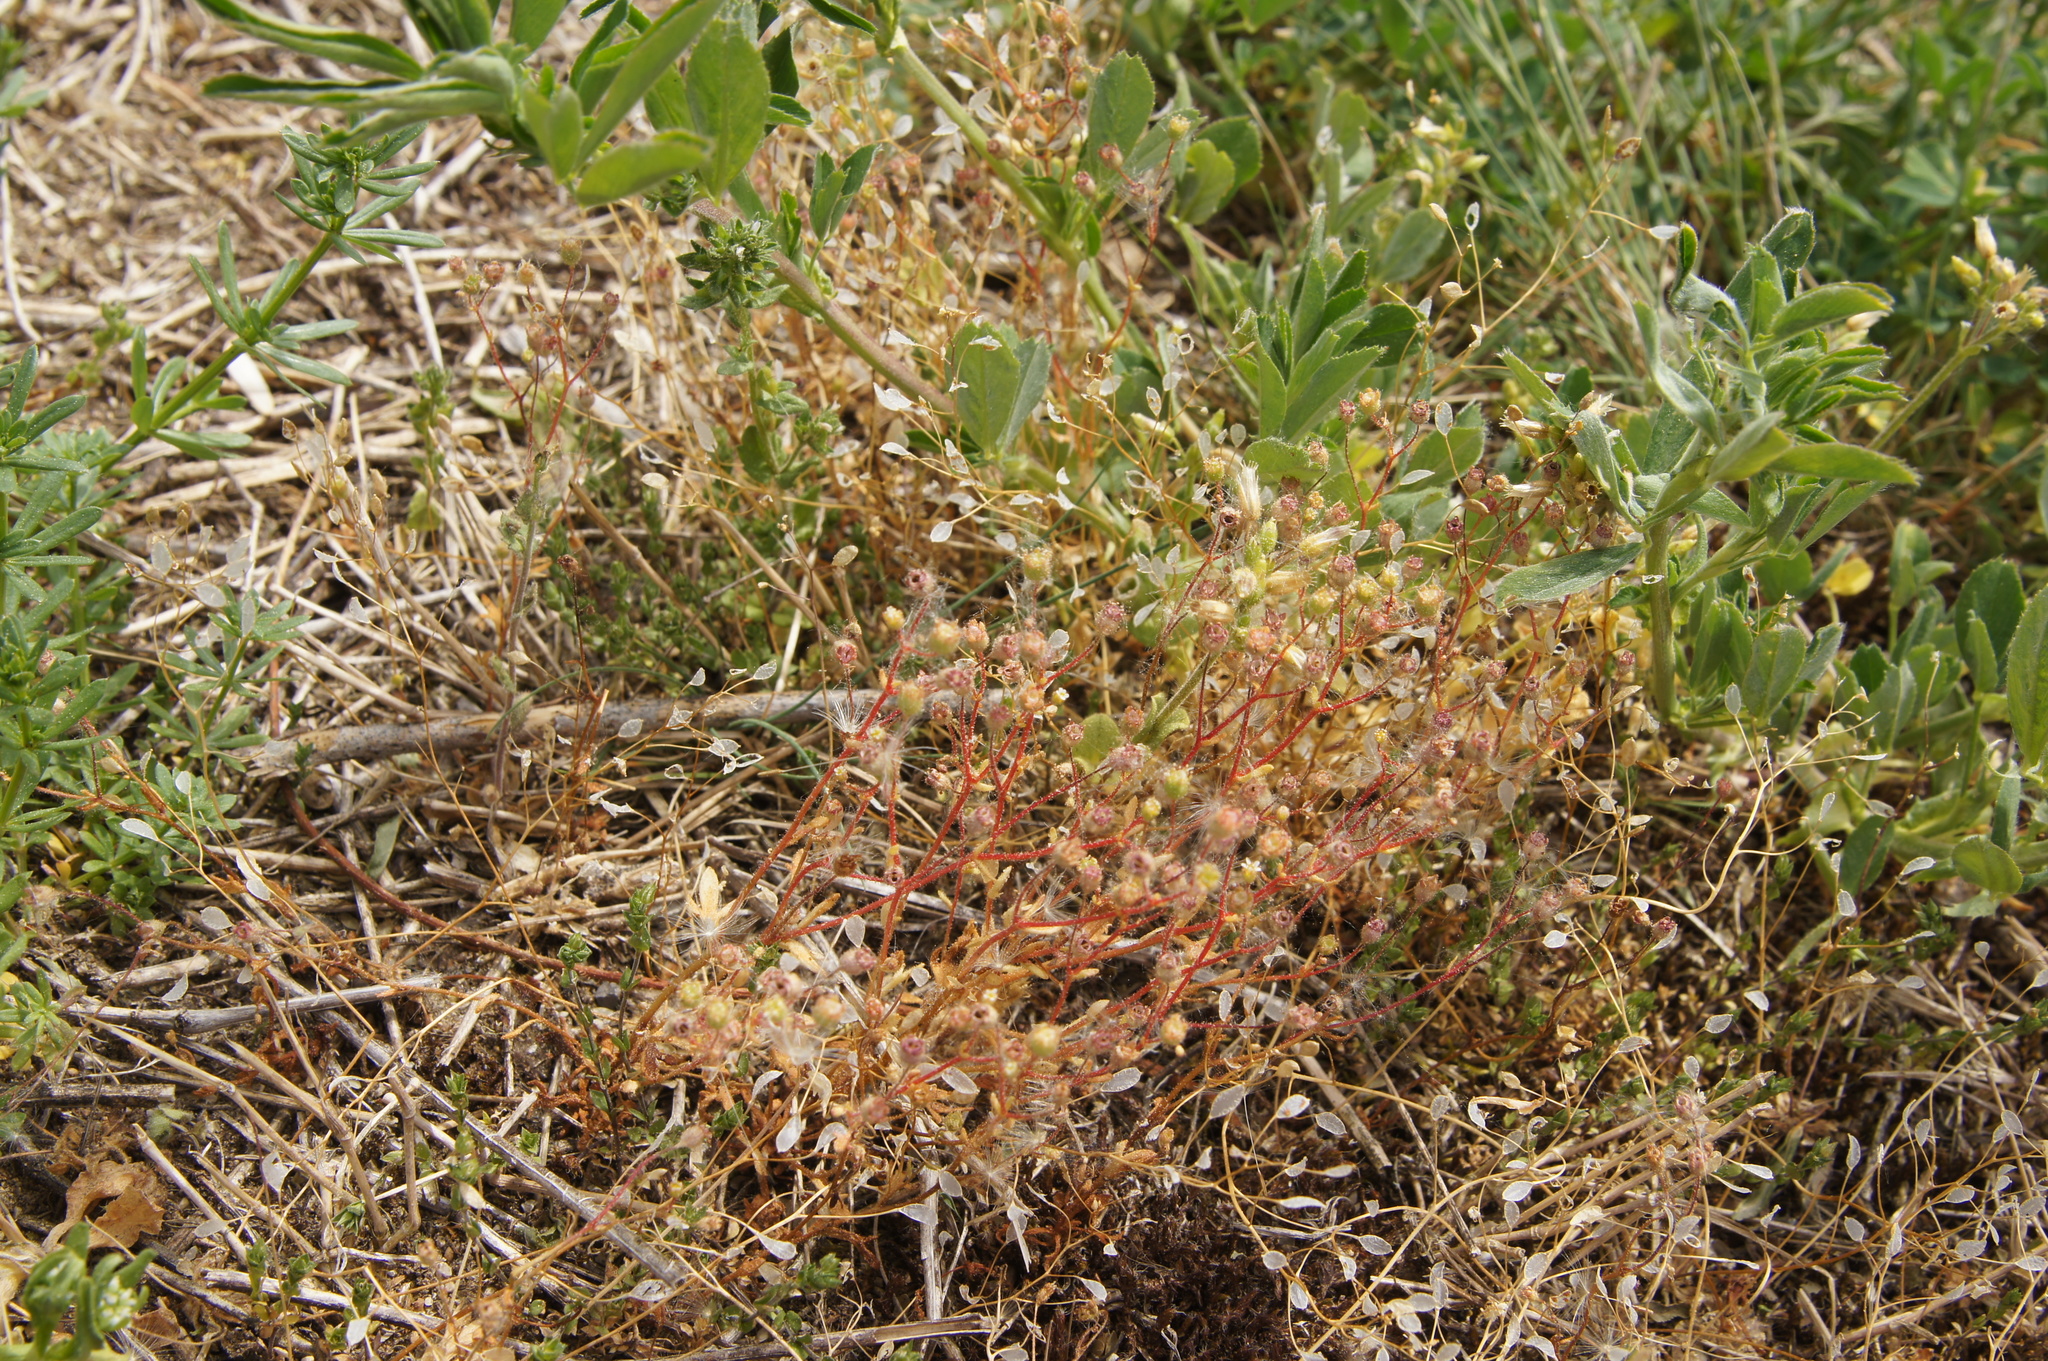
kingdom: Plantae
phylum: Tracheophyta
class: Magnoliopsida
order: Saxifragales
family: Saxifragaceae
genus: Saxifraga
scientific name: Saxifraga tridactylites
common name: Rue-leaved saxifrage
